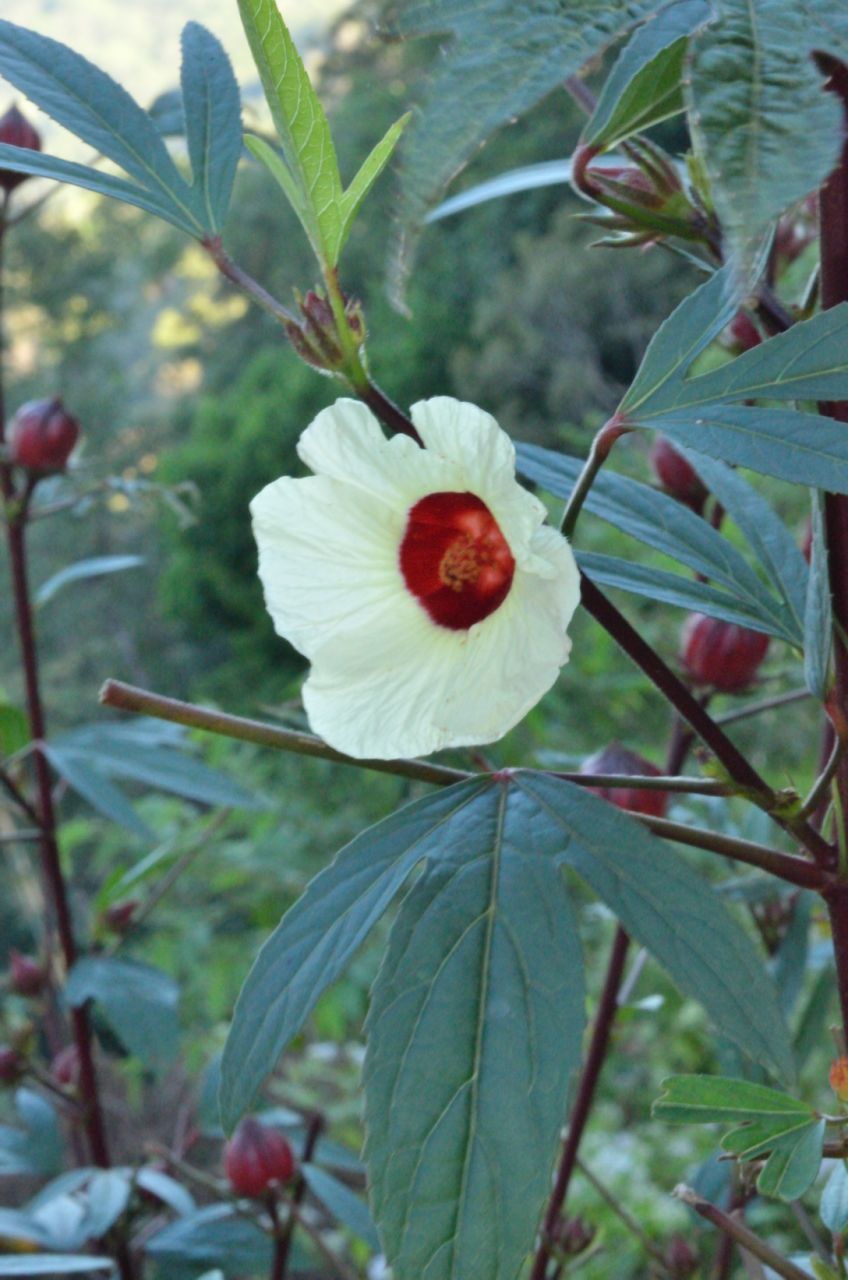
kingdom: Plantae
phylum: Tracheophyta
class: Magnoliopsida
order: Malvales
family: Malvaceae
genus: Hibiscus
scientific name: Hibiscus sabdariffa
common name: Roselle
